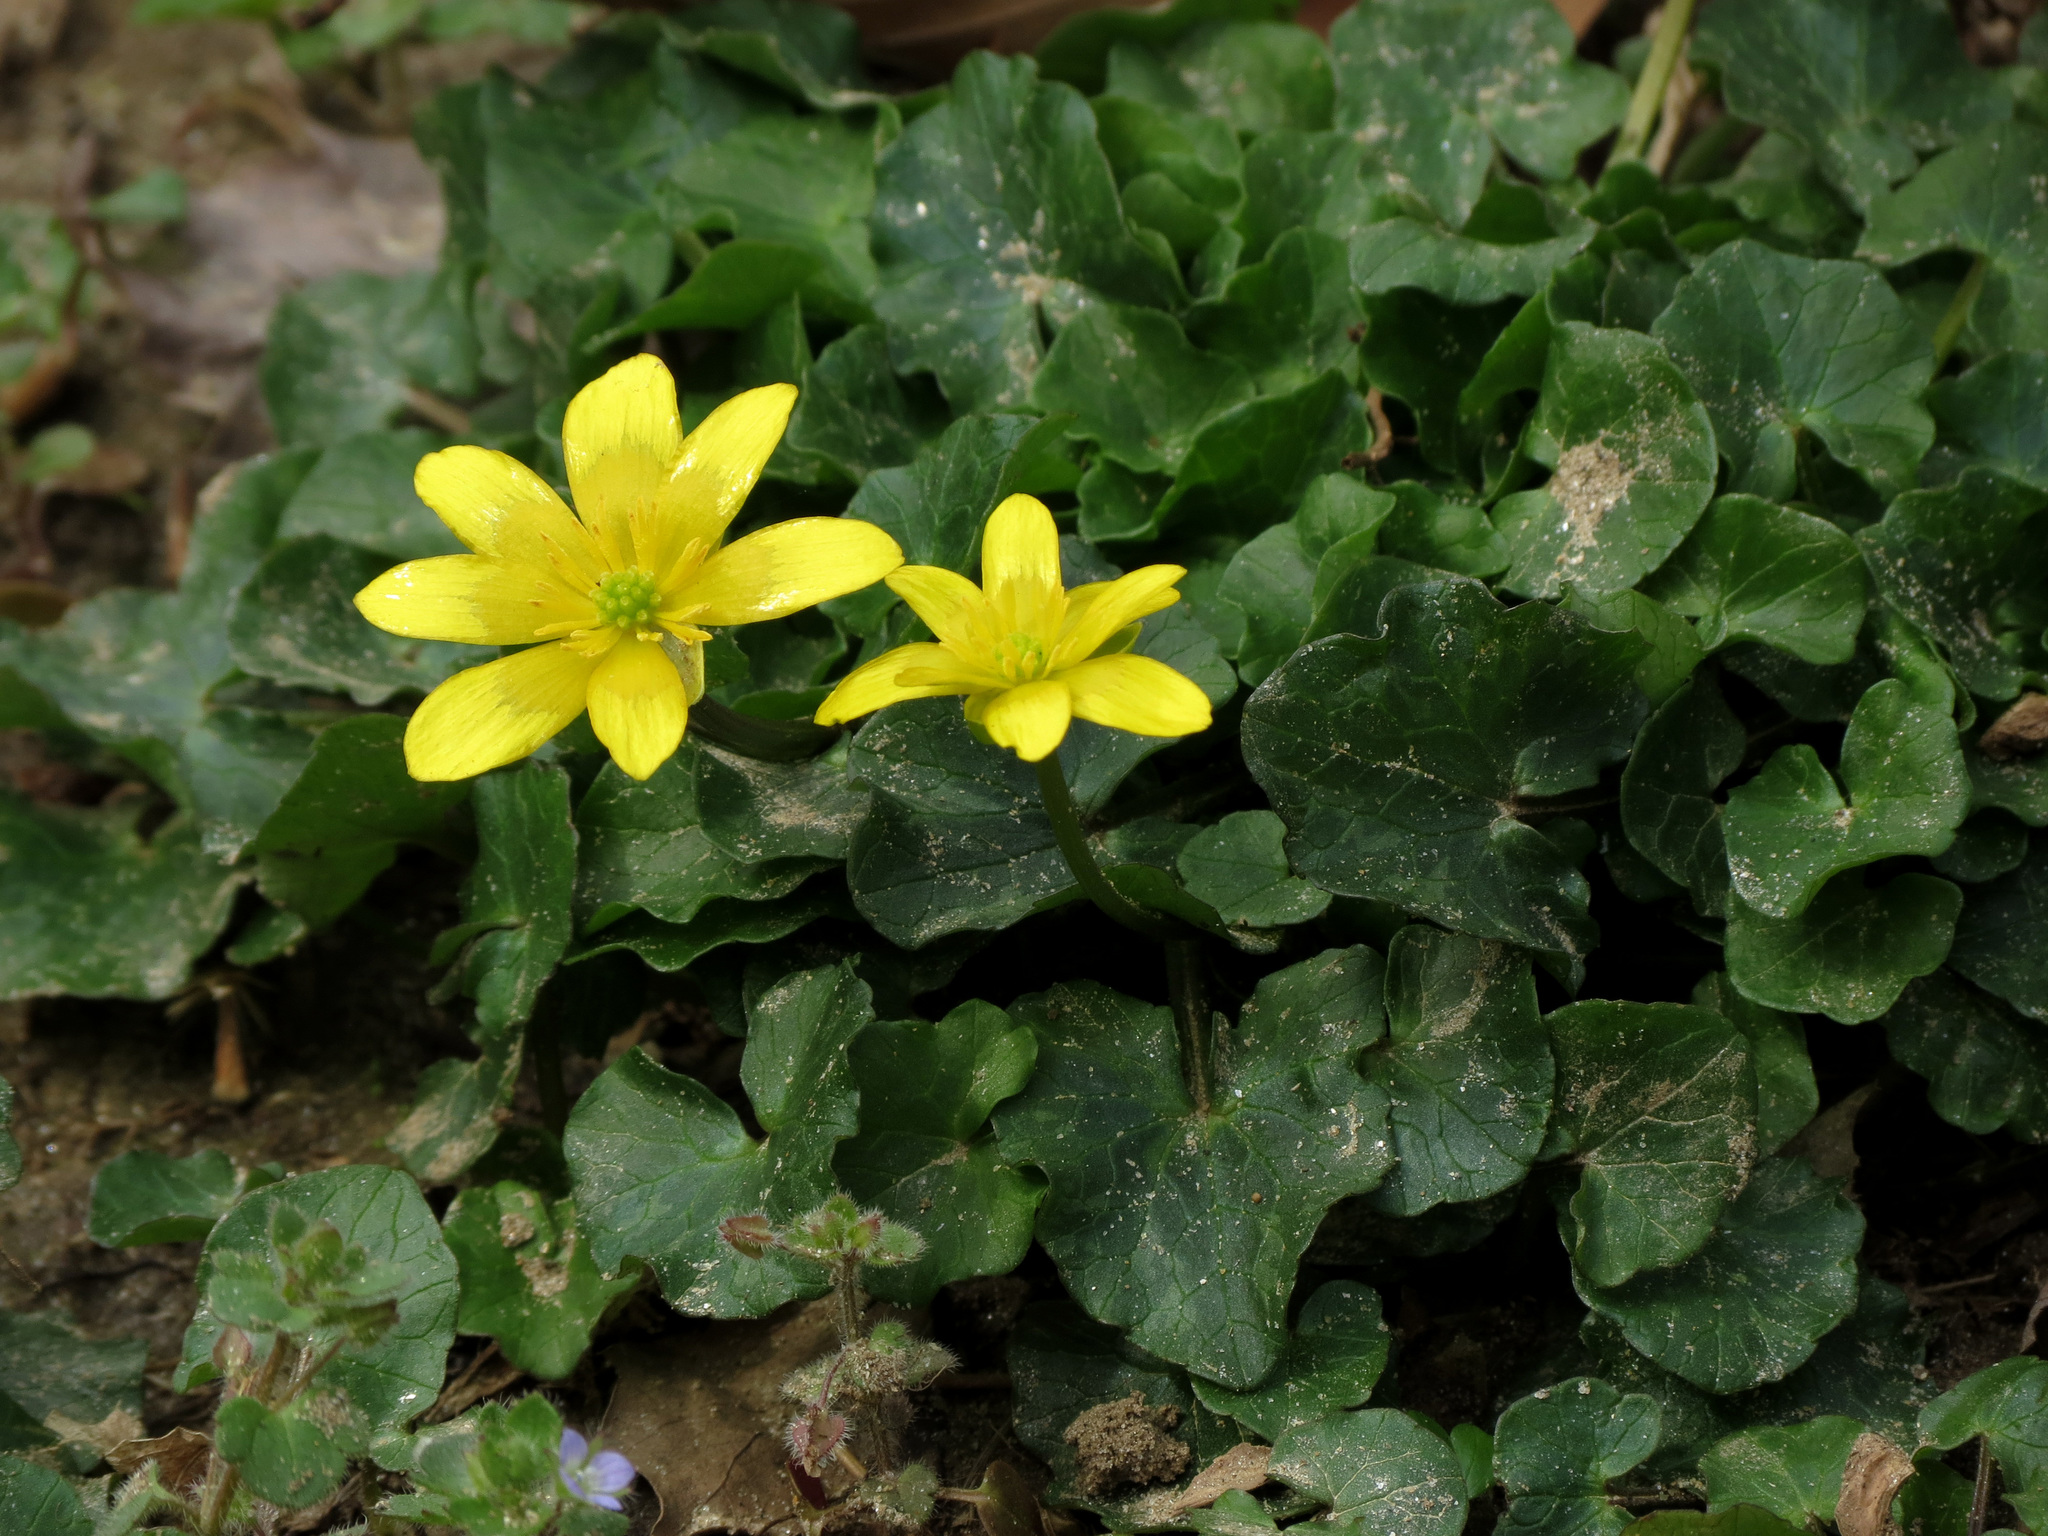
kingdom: Plantae
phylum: Tracheophyta
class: Magnoliopsida
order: Ranunculales
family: Ranunculaceae
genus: Ficaria
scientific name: Ficaria verna
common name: Lesser celandine
